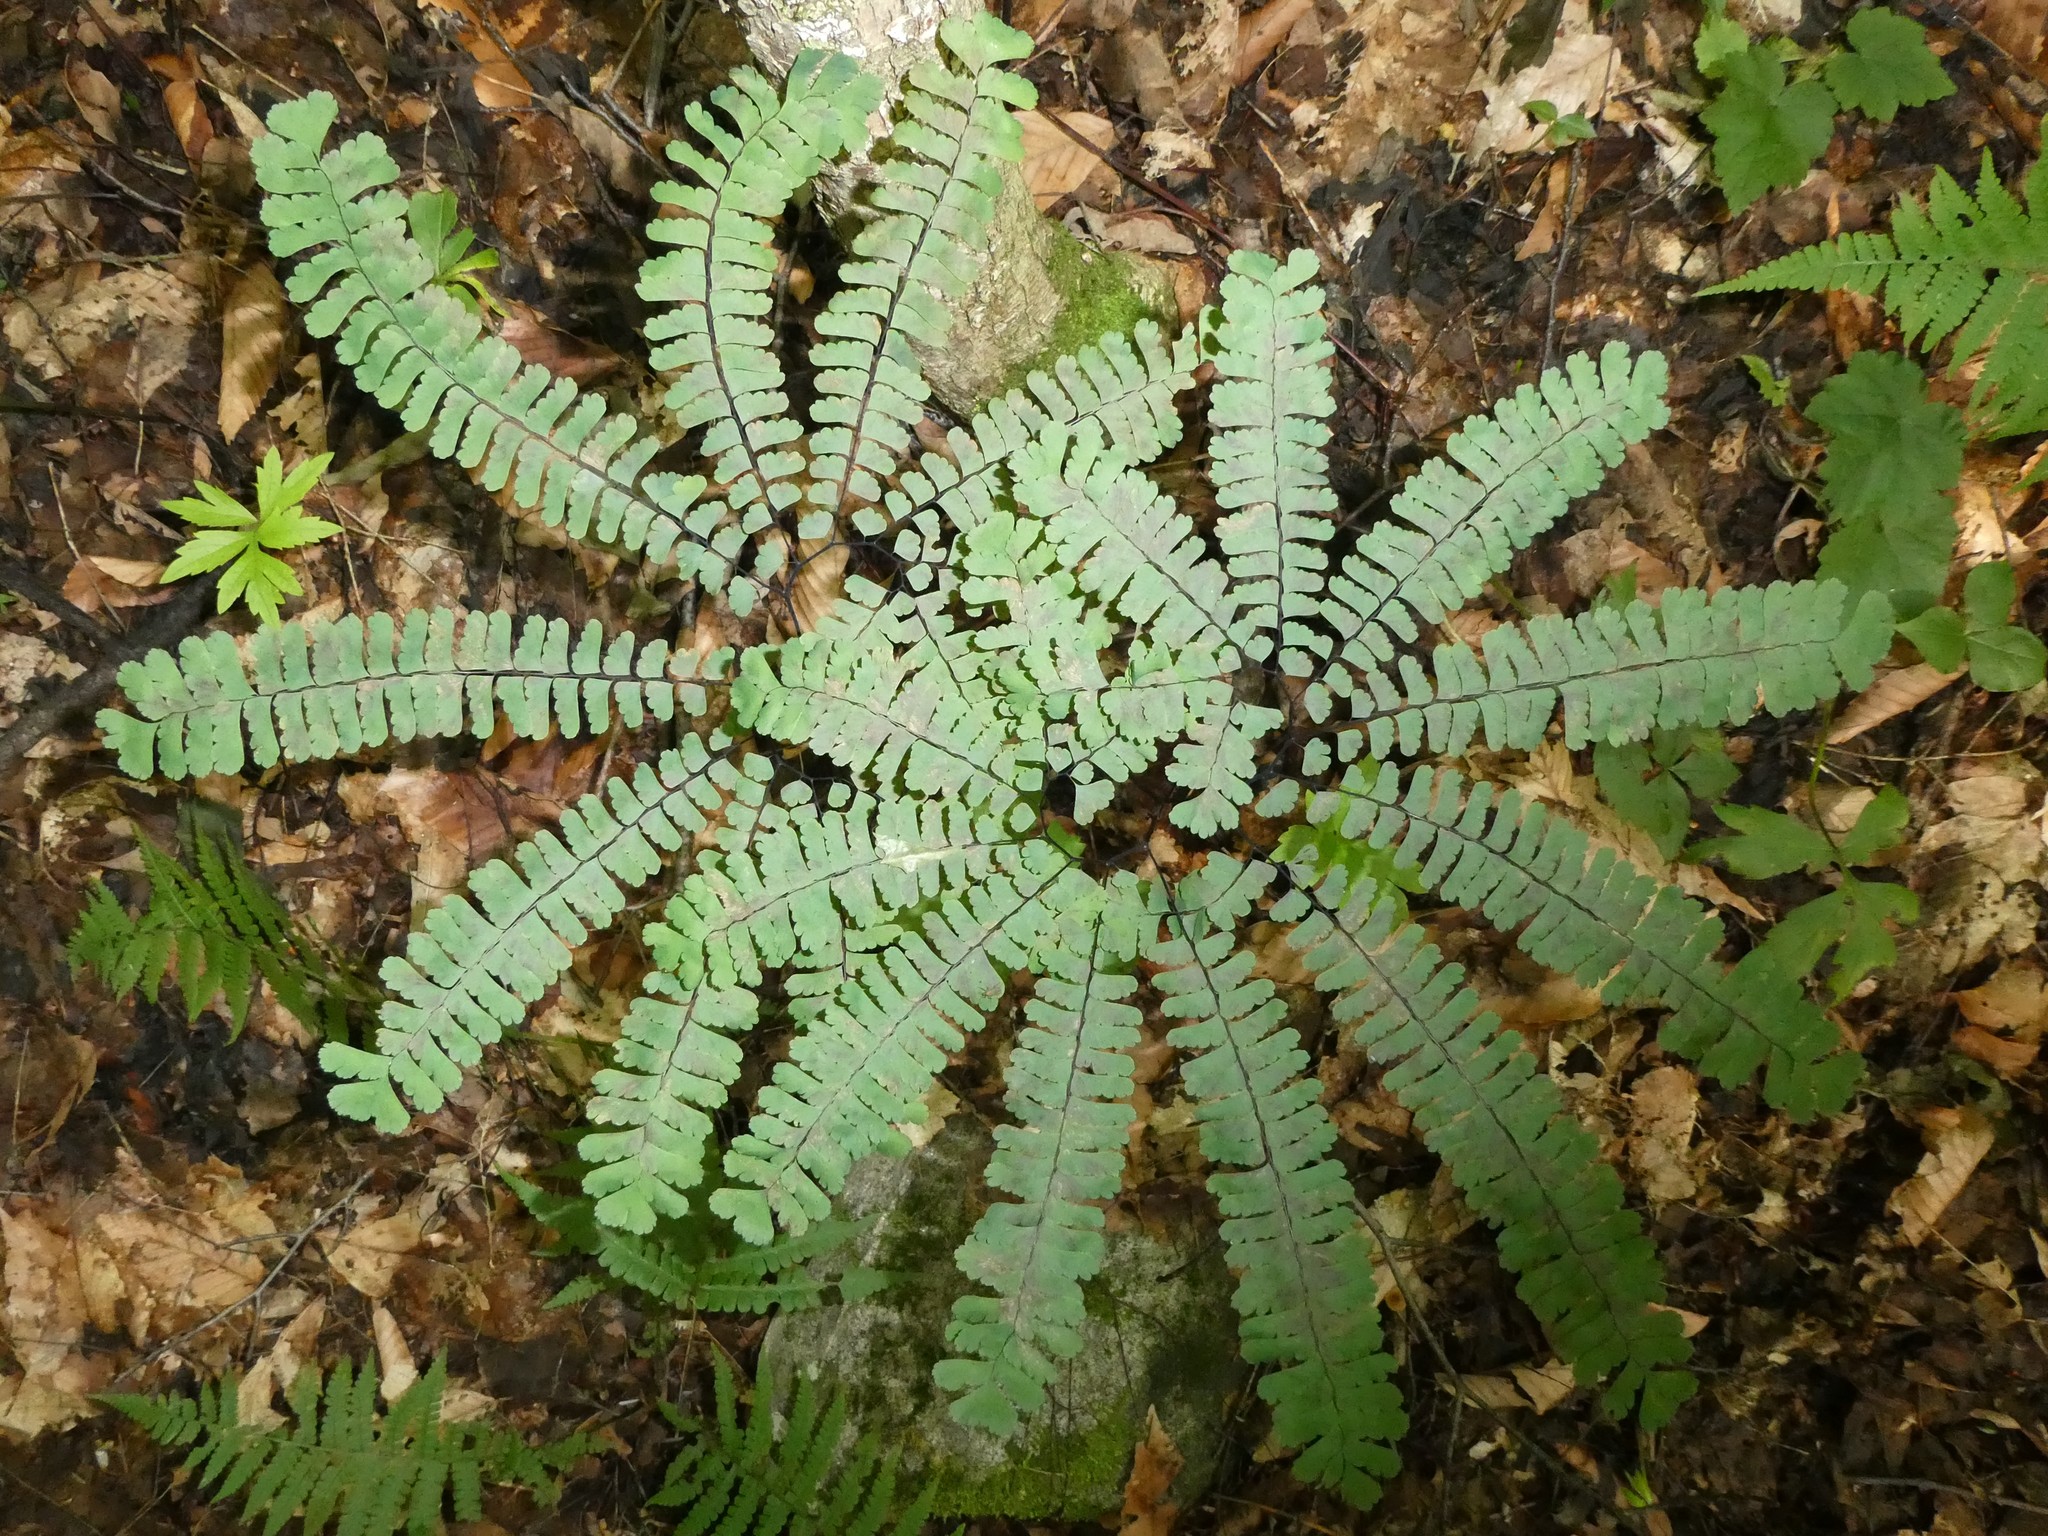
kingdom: Plantae
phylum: Tracheophyta
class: Polypodiopsida
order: Polypodiales
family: Pteridaceae
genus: Adiantum
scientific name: Adiantum pedatum
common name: Five-finger fern
